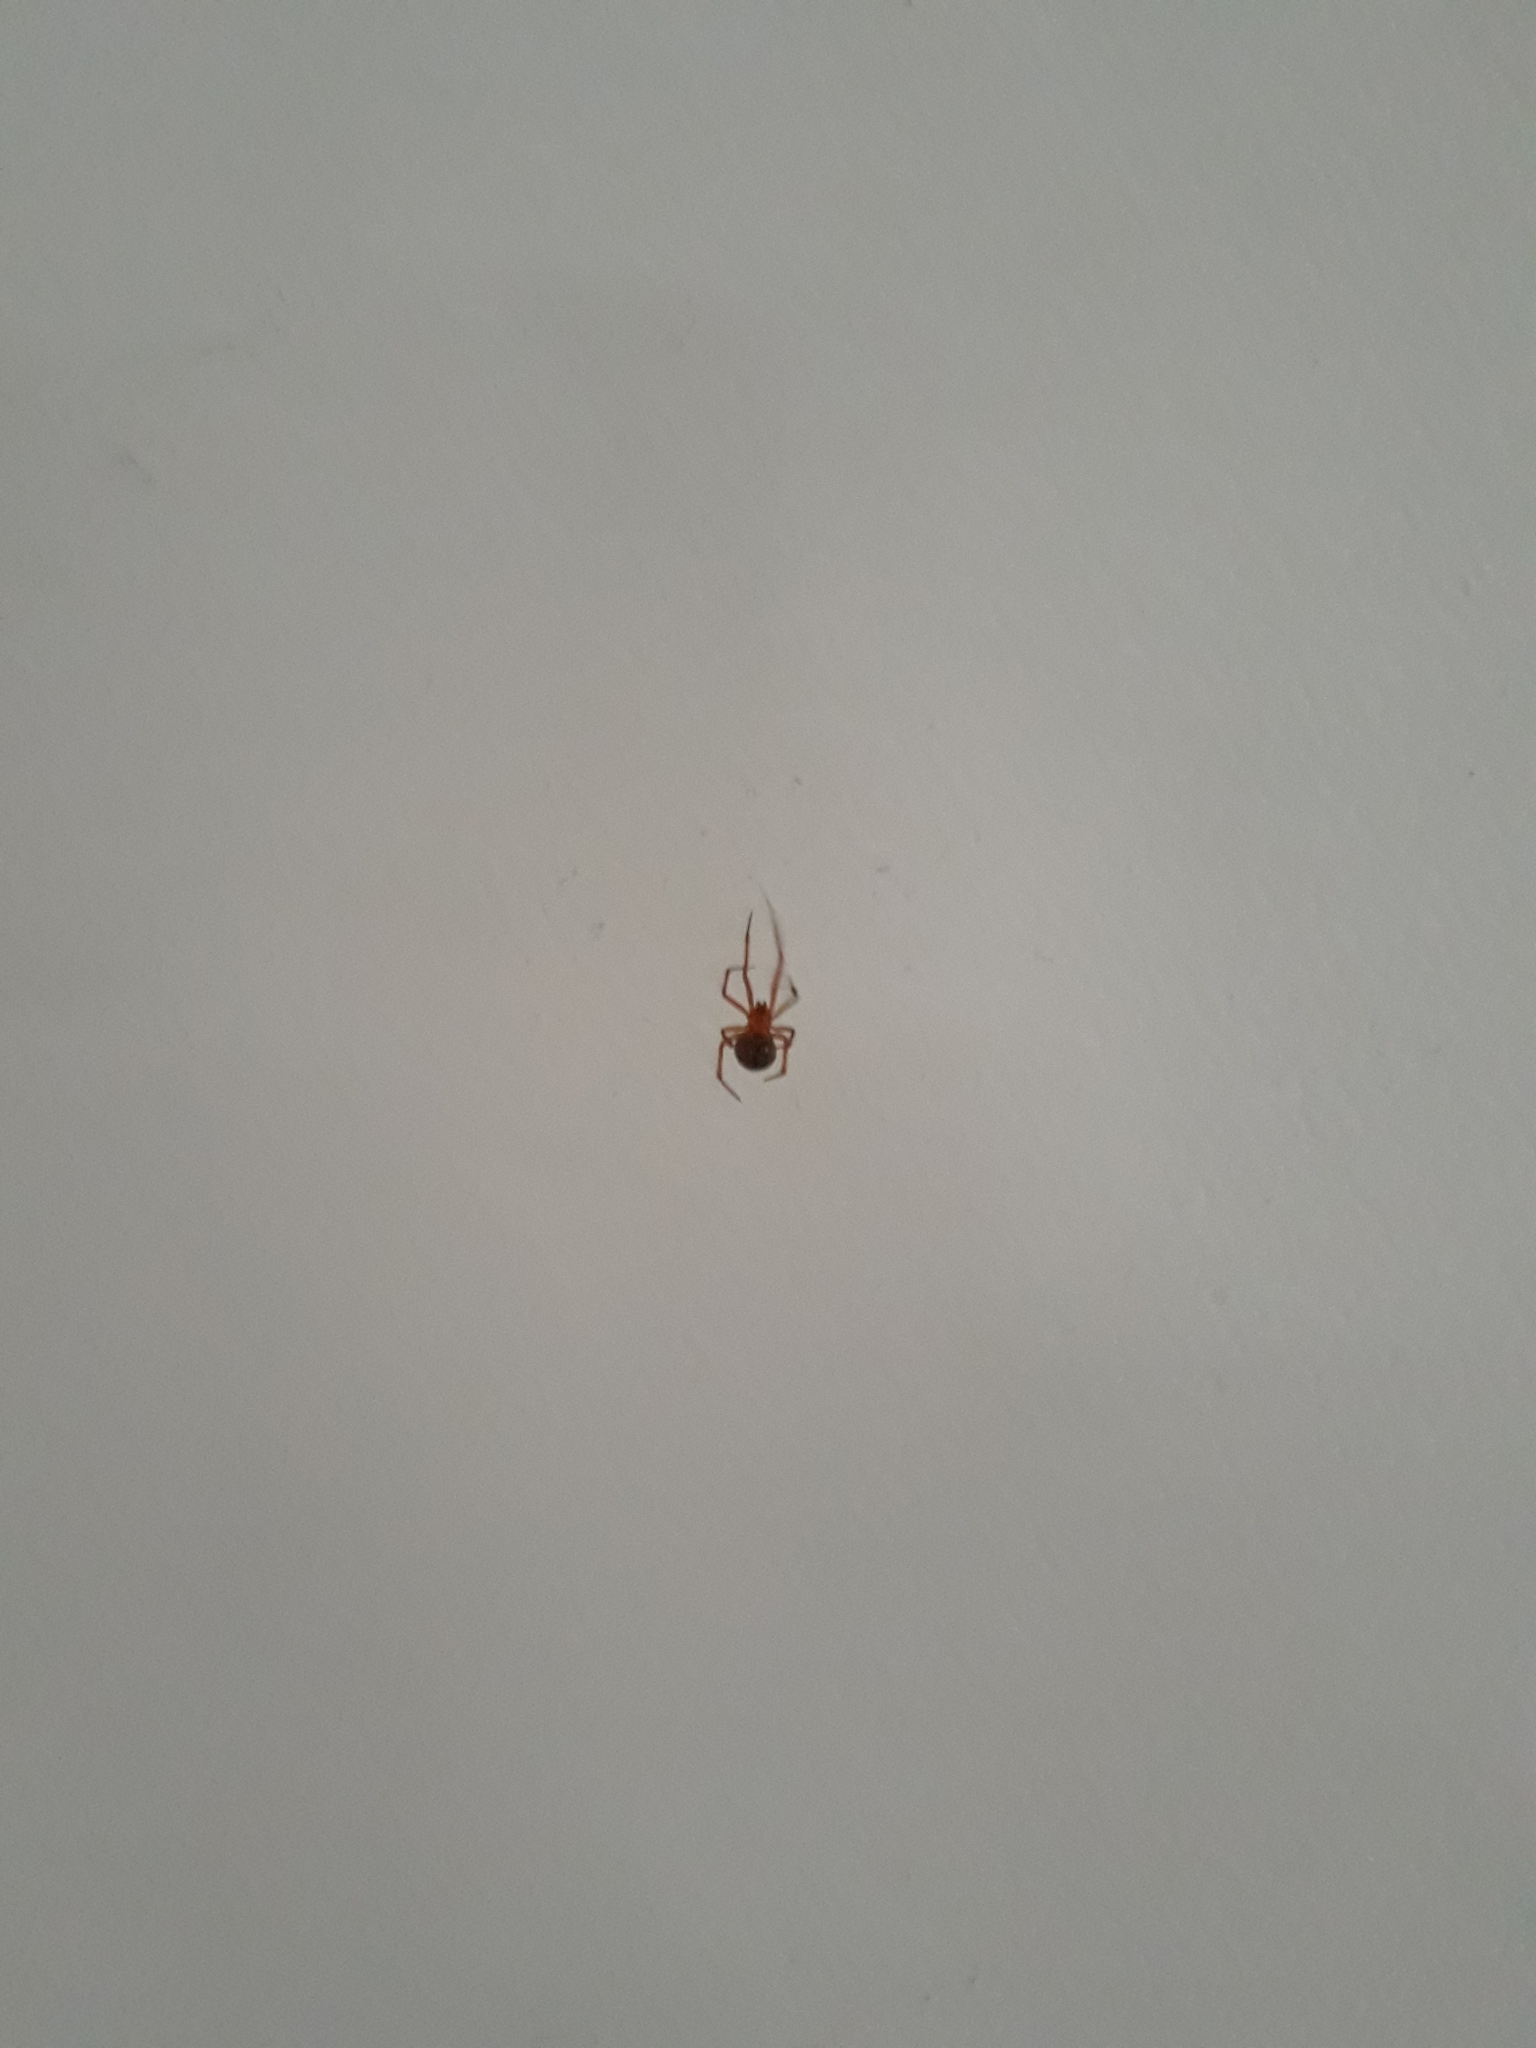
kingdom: Animalia
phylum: Arthropoda
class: Arachnida
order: Araneae
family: Theridiidae
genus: Nesticodes
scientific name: Nesticodes rufipes
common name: Cobweb spiders
